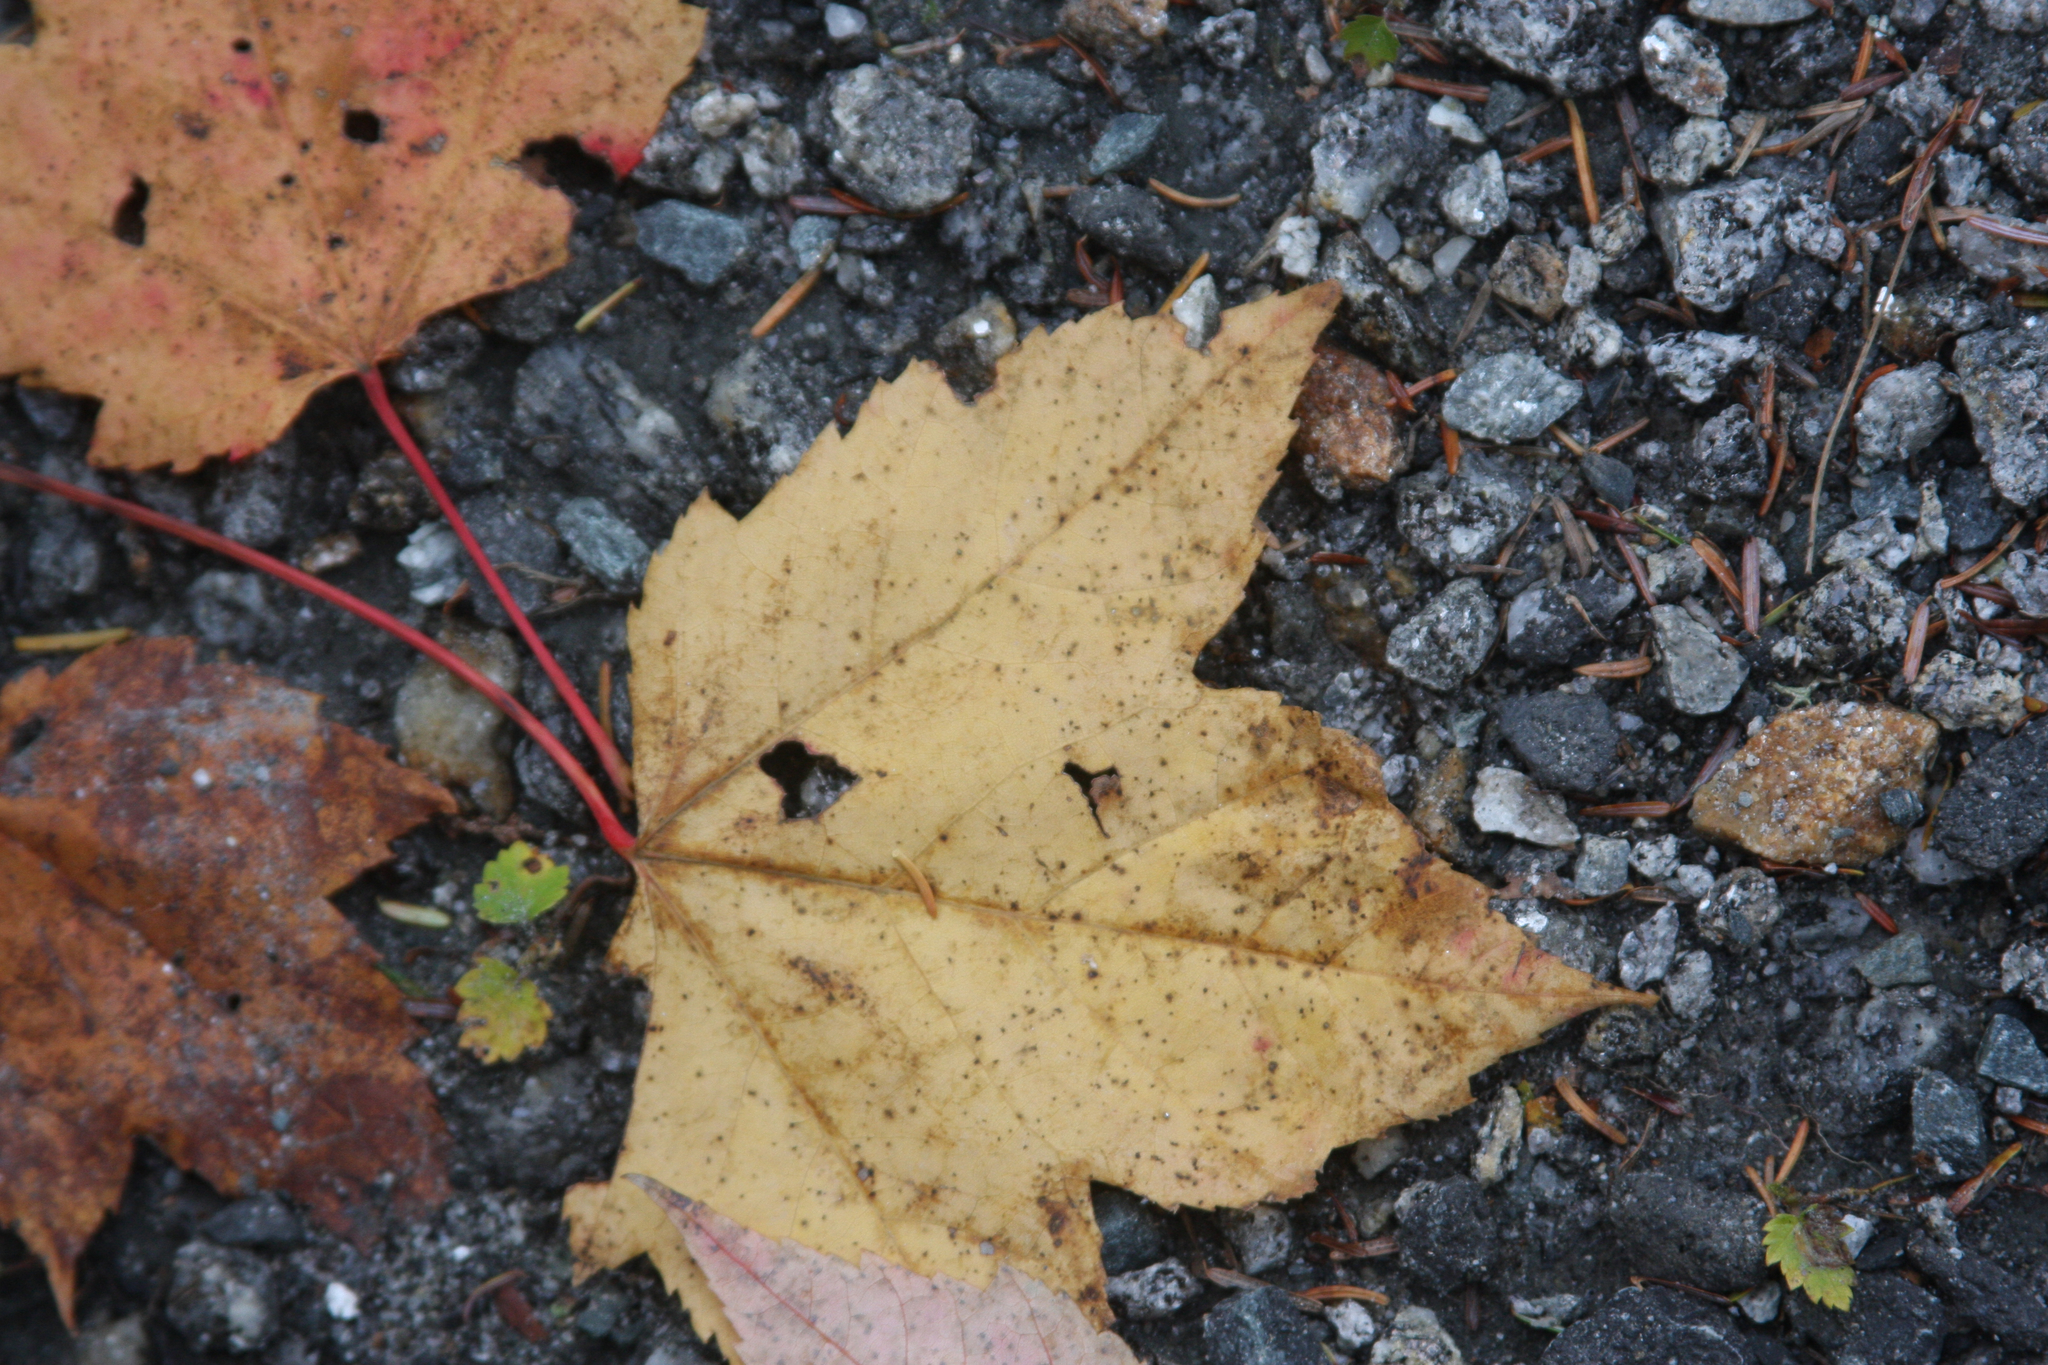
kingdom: Plantae
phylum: Tracheophyta
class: Magnoliopsida
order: Sapindales
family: Sapindaceae
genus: Acer
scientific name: Acer rubrum
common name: Red maple
